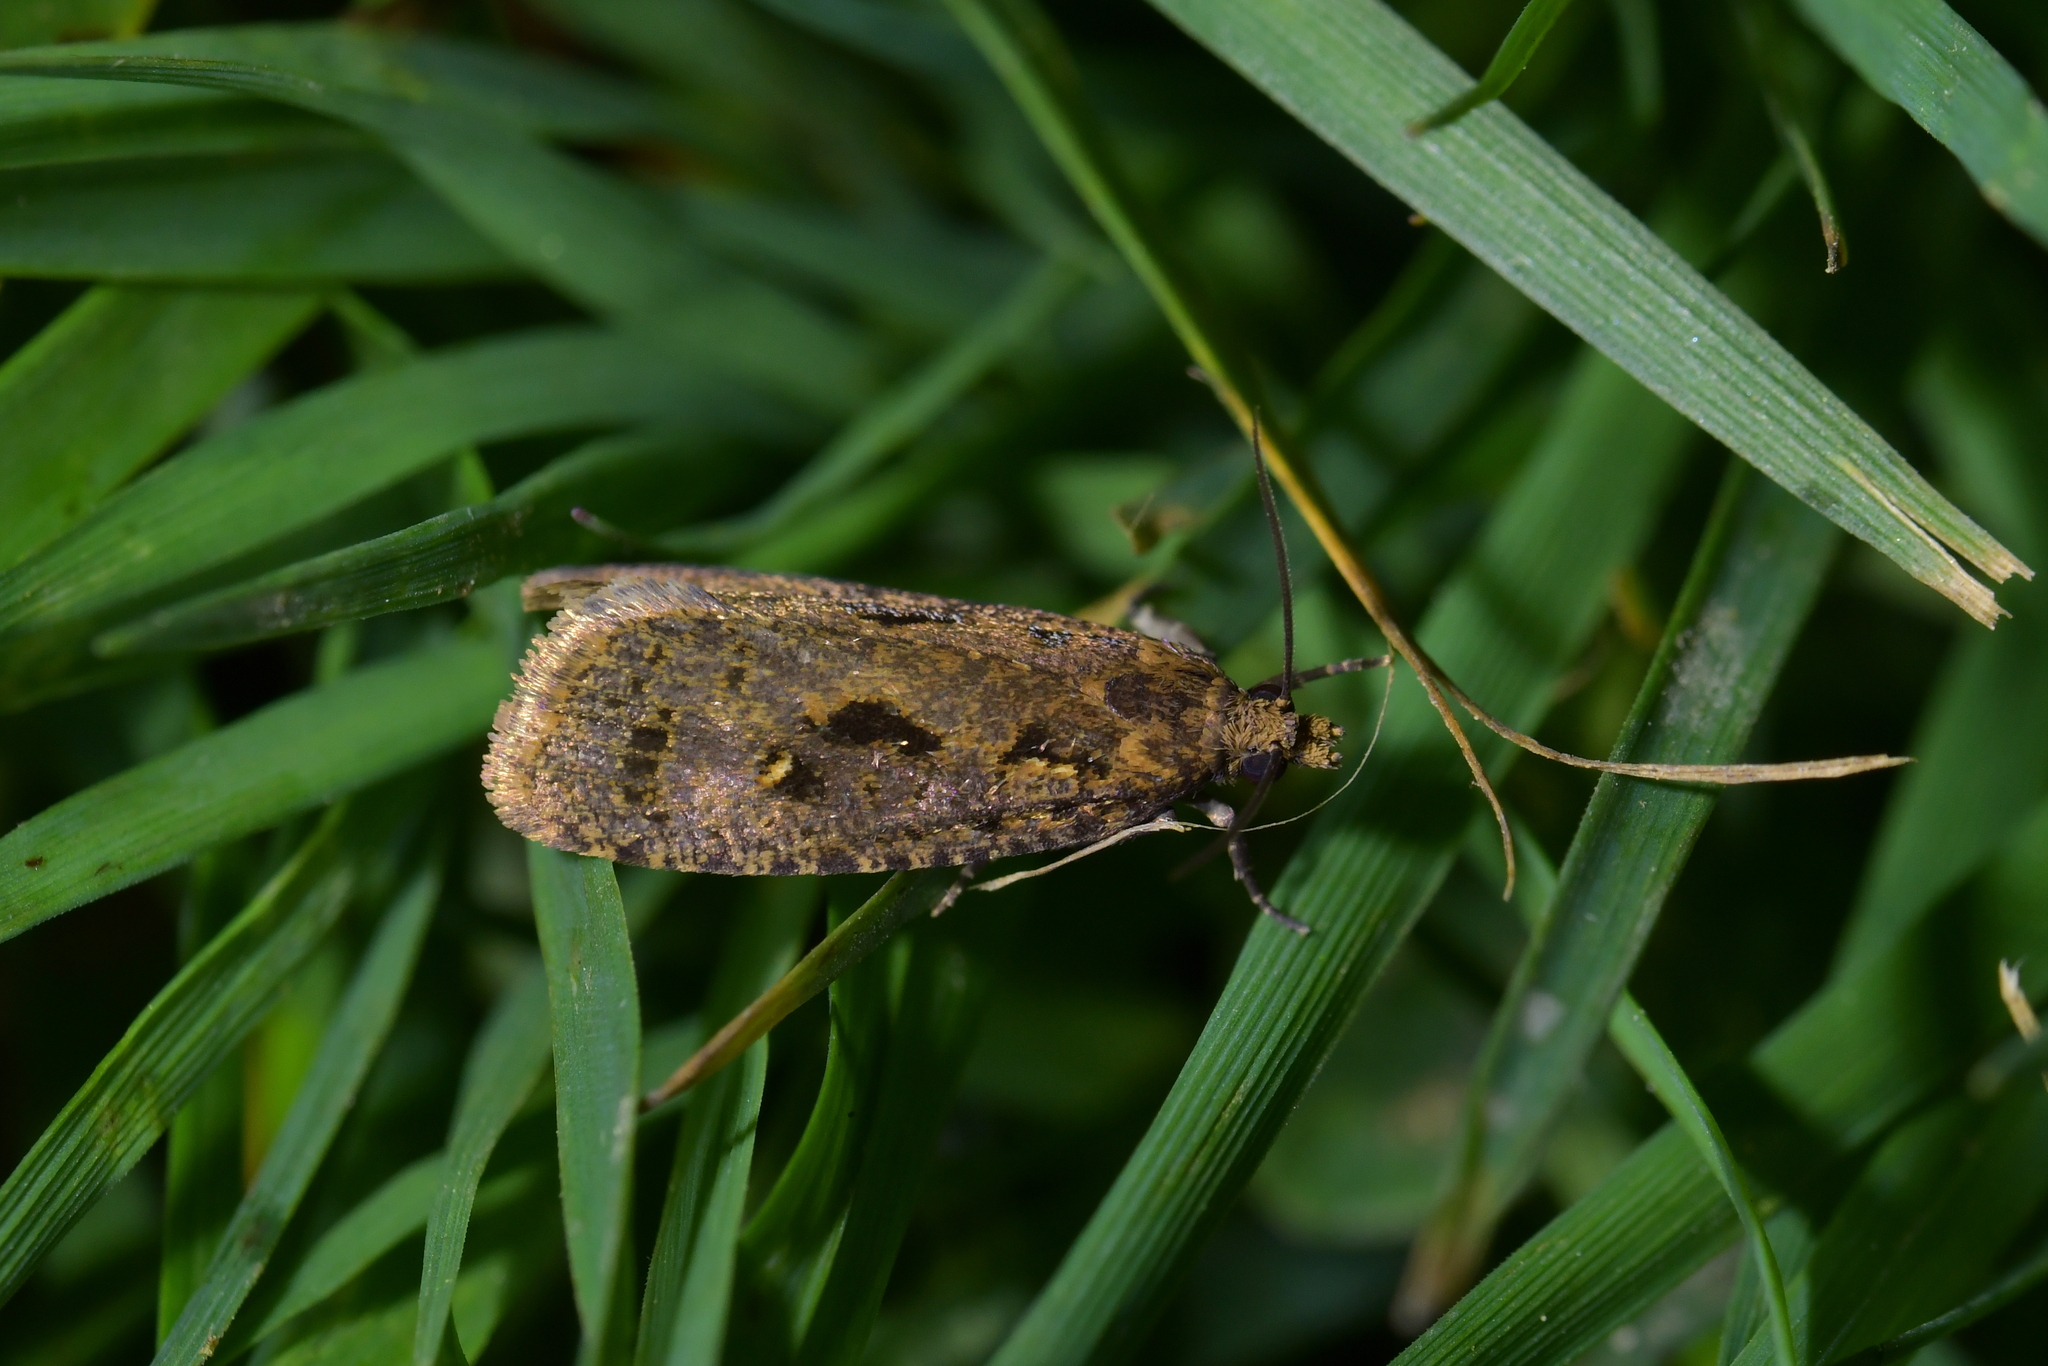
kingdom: Animalia
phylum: Arthropoda
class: Insecta
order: Lepidoptera
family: Tortricidae
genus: Cryptaspasma
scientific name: Cryptaspasma querula
